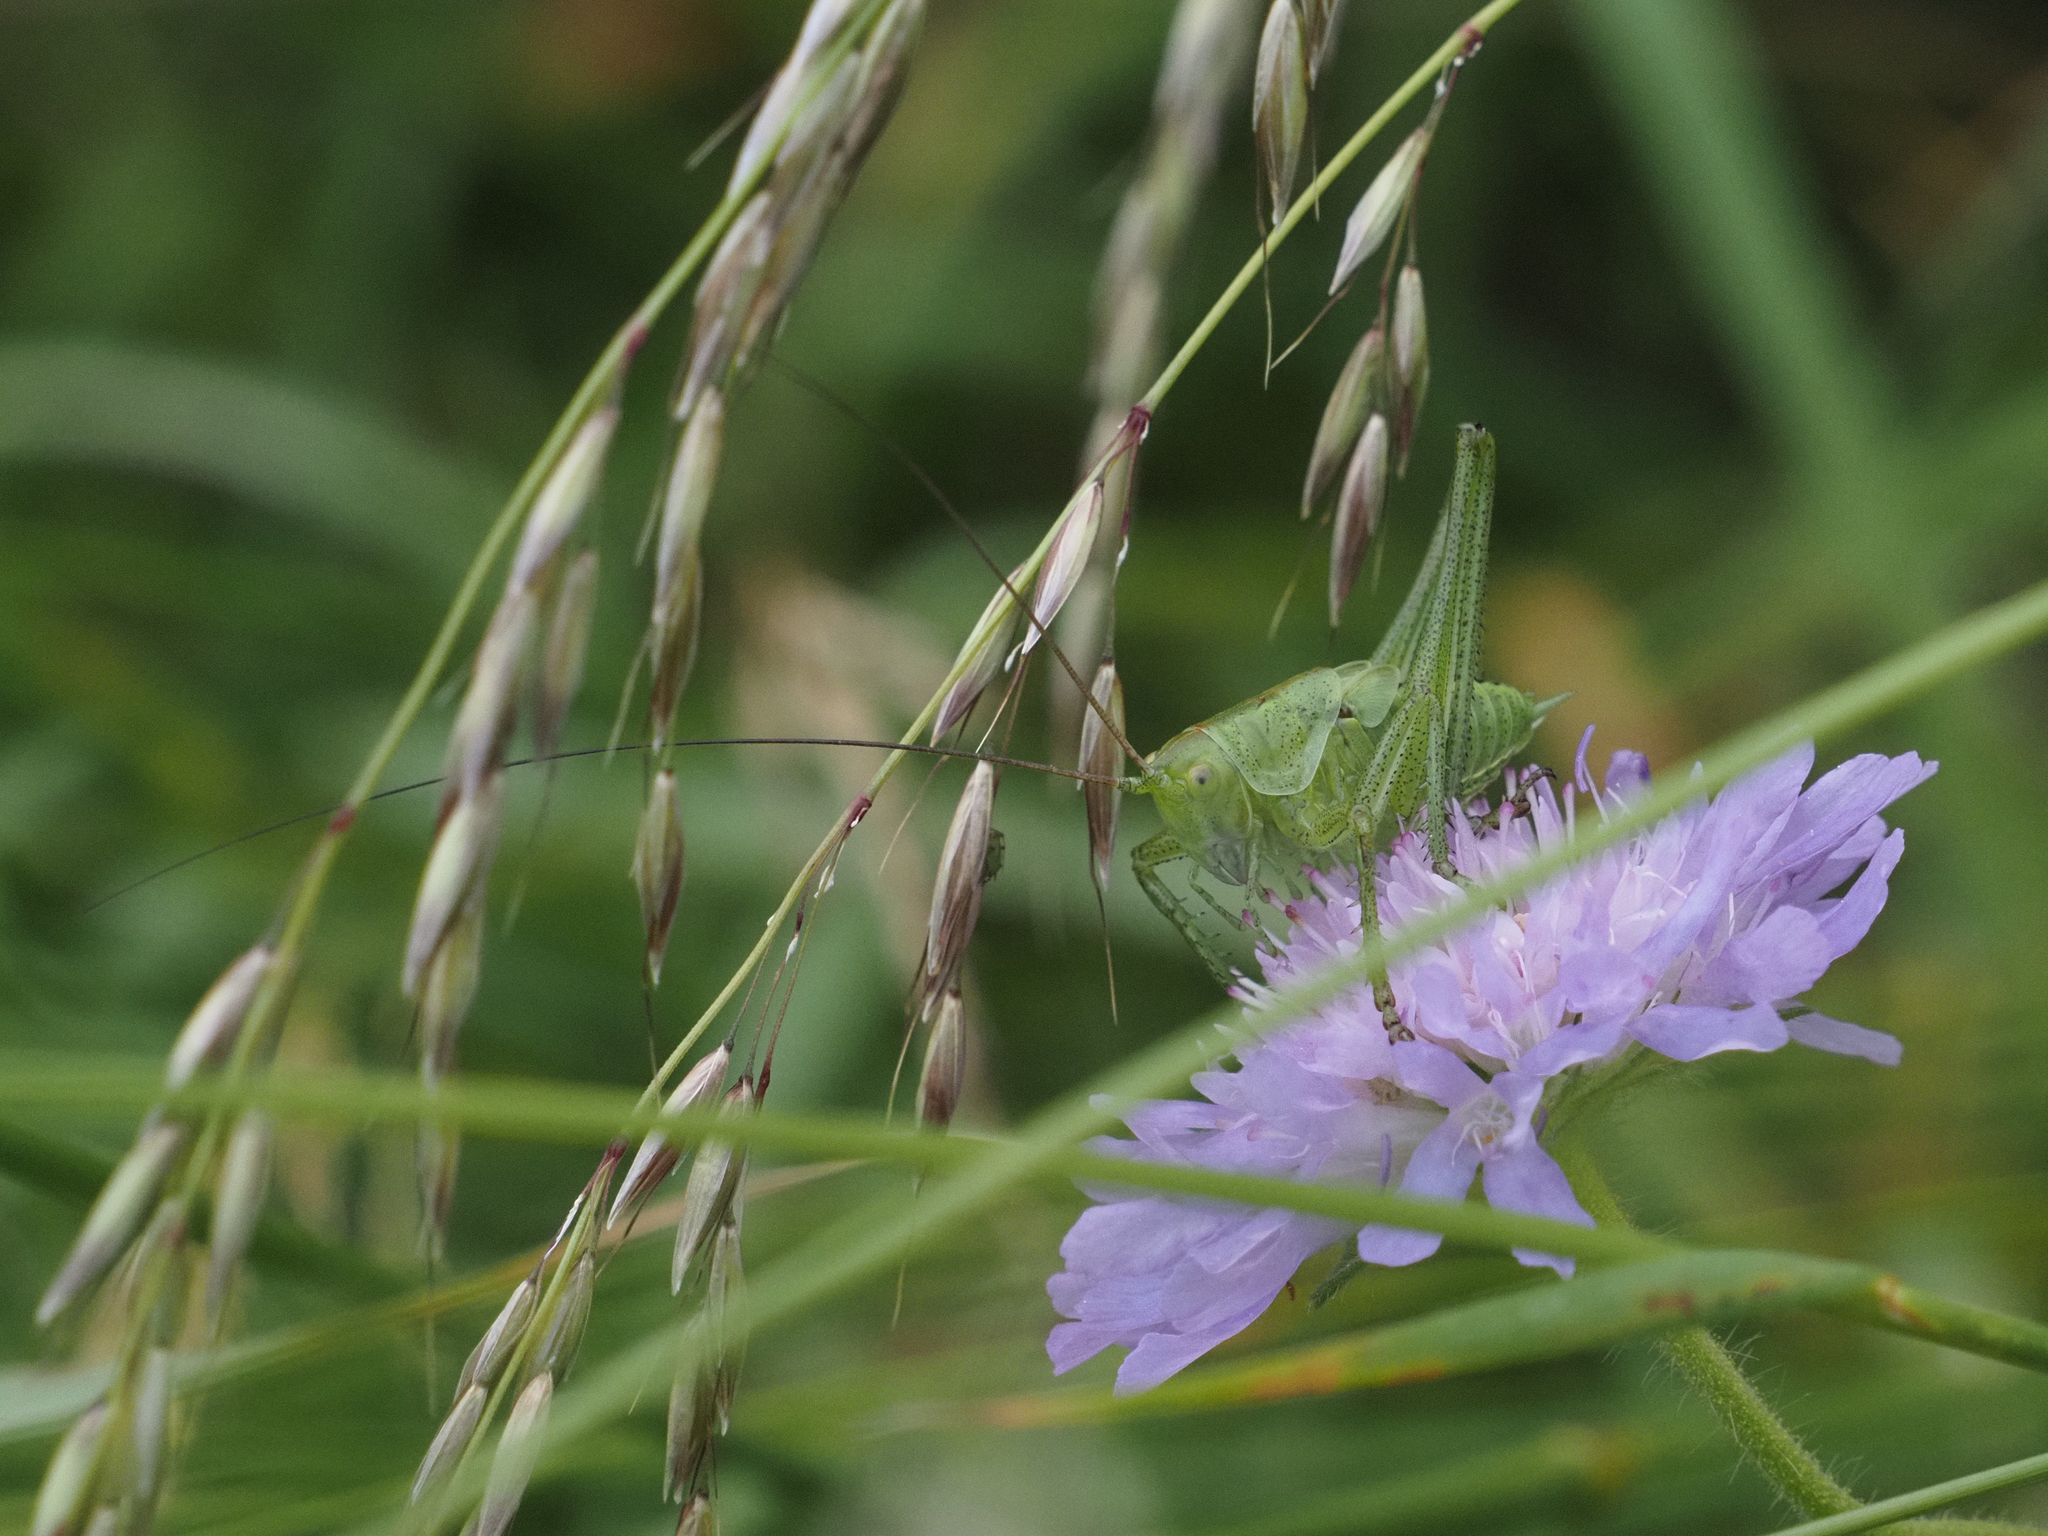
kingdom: Animalia
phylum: Arthropoda
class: Insecta
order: Orthoptera
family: Tettigoniidae
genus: Tettigonia
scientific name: Tettigonia viridissima
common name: Great green bush-cricket
